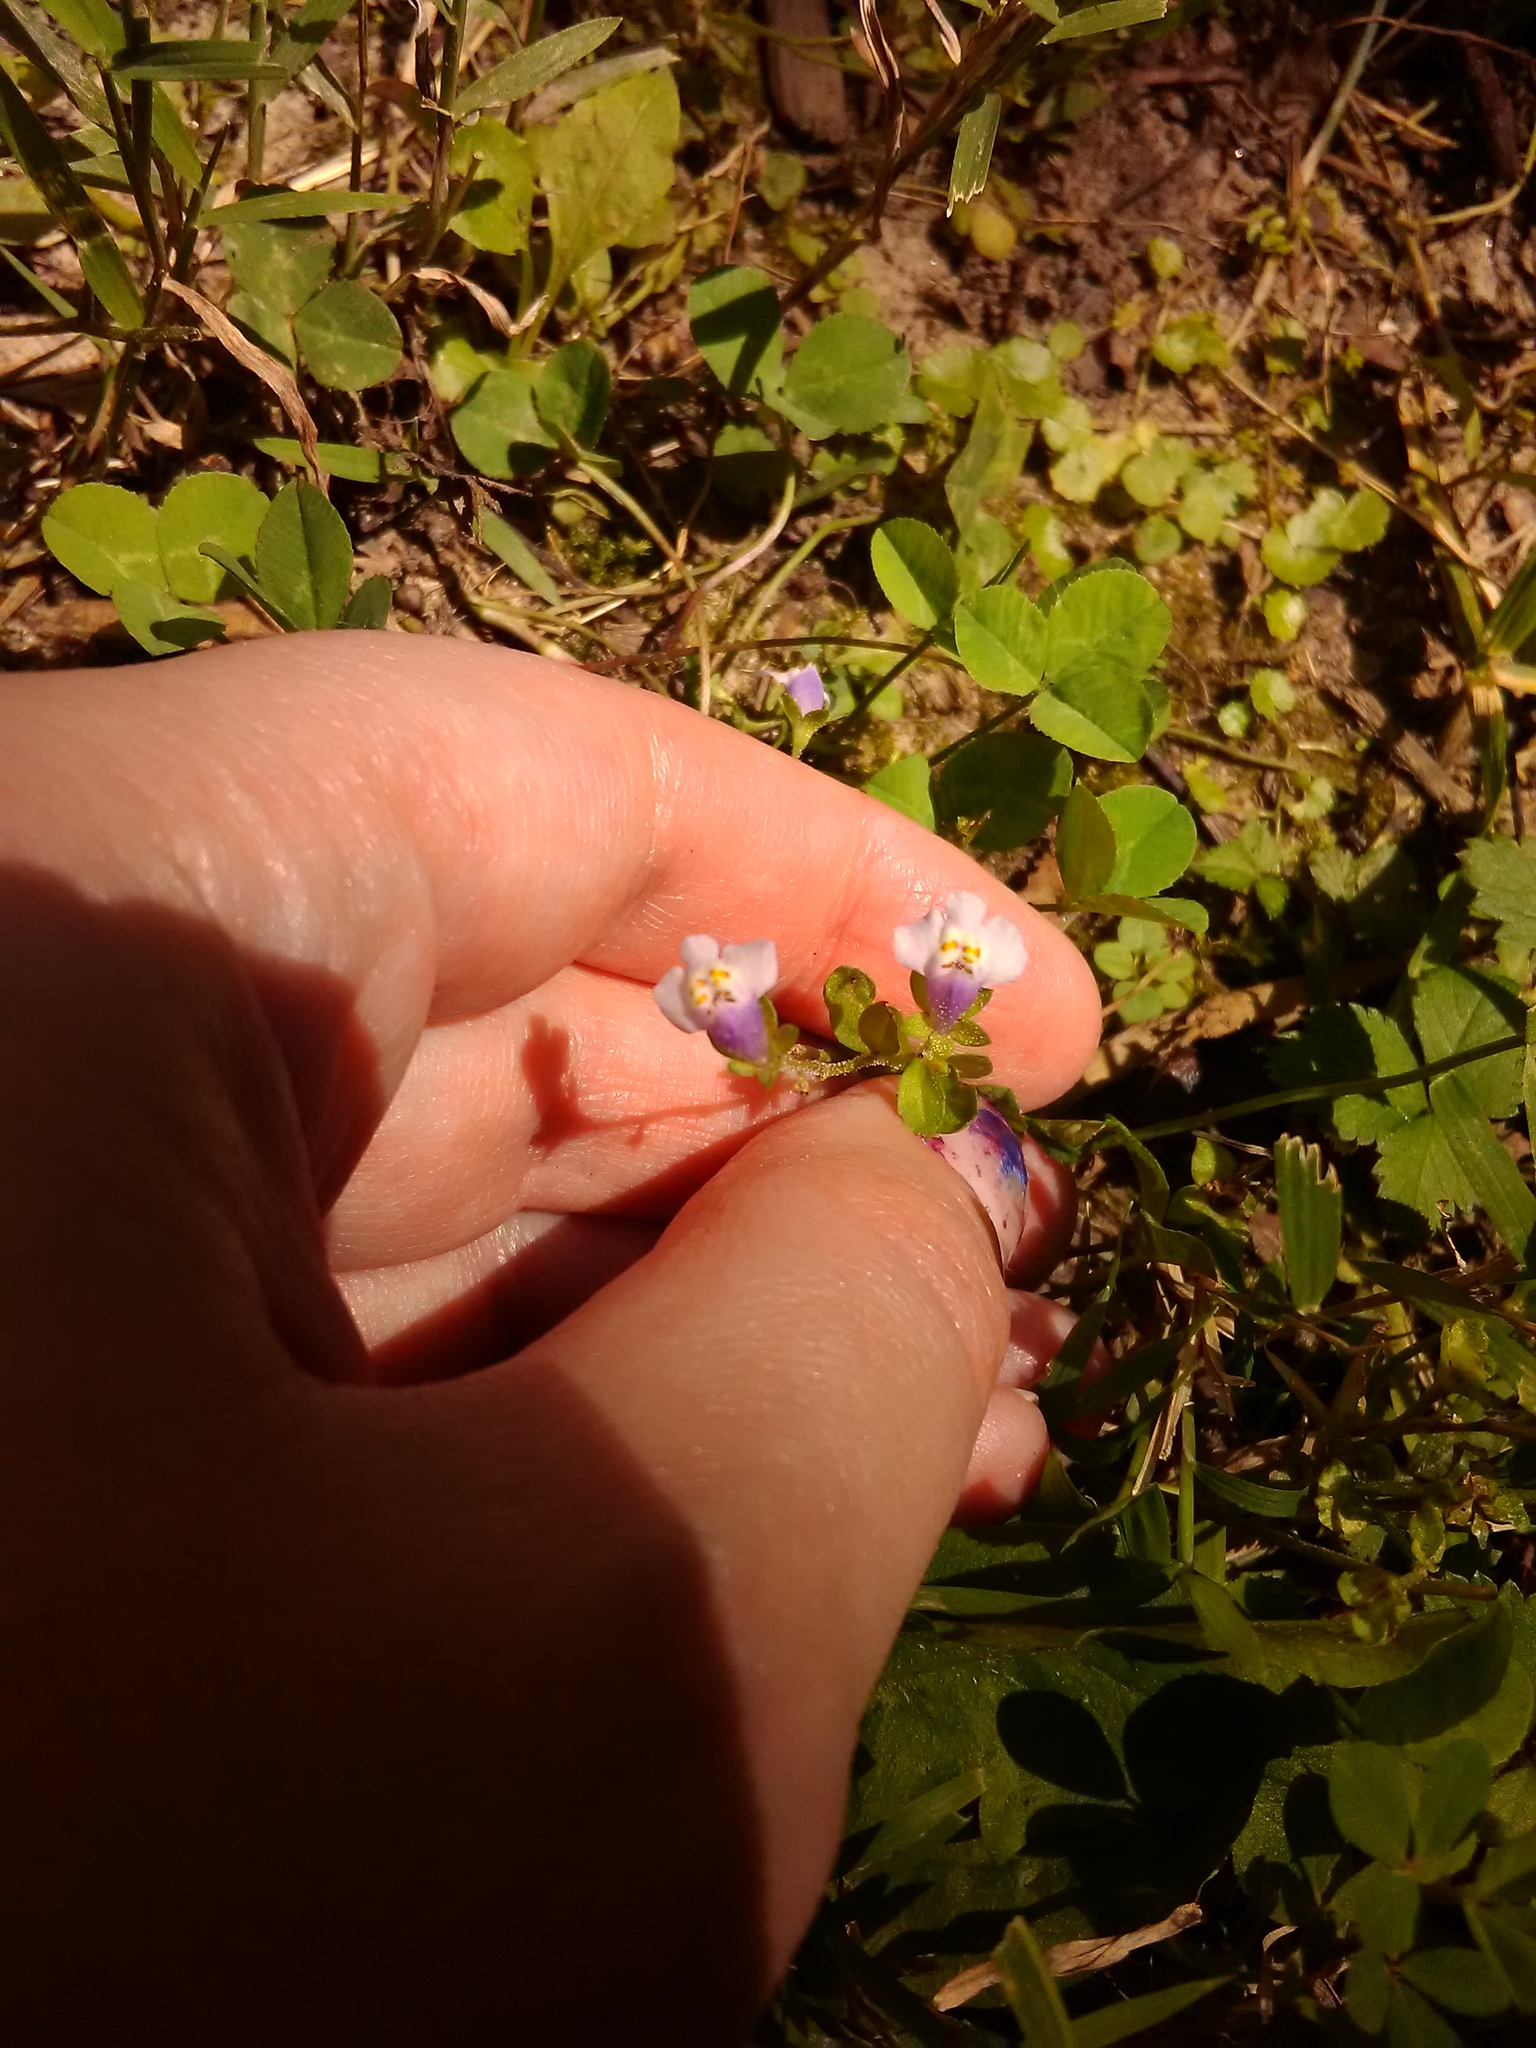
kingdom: Plantae
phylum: Tracheophyta
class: Magnoliopsida
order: Lamiales
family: Mazaceae
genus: Mazus
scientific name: Mazus pumilus
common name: Japanese mazus
